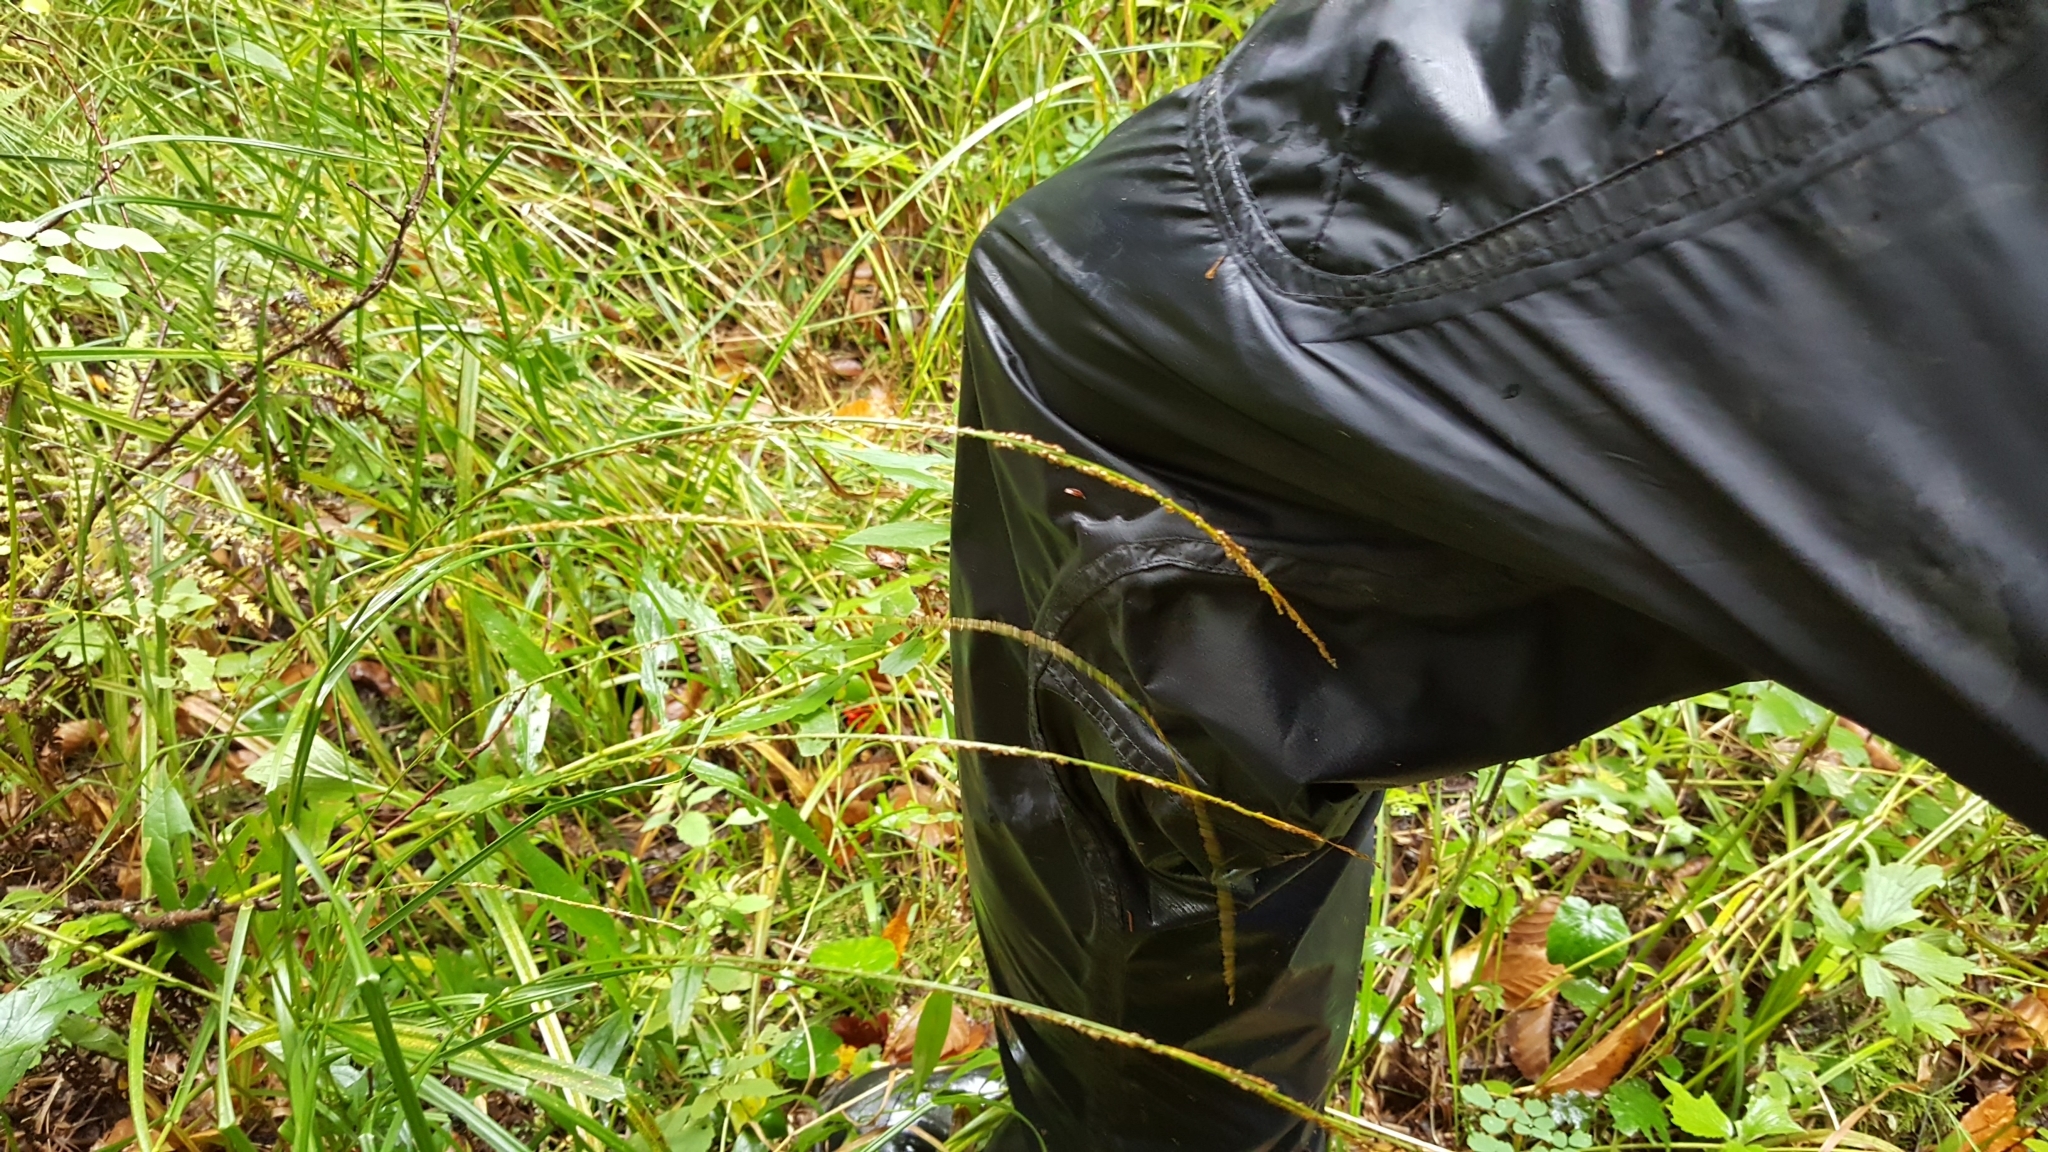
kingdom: Plantae
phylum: Tracheophyta
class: Liliopsida
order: Poales
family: Poaceae
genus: Glyceria
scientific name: Glyceria melicaria
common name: Long mannagrass
